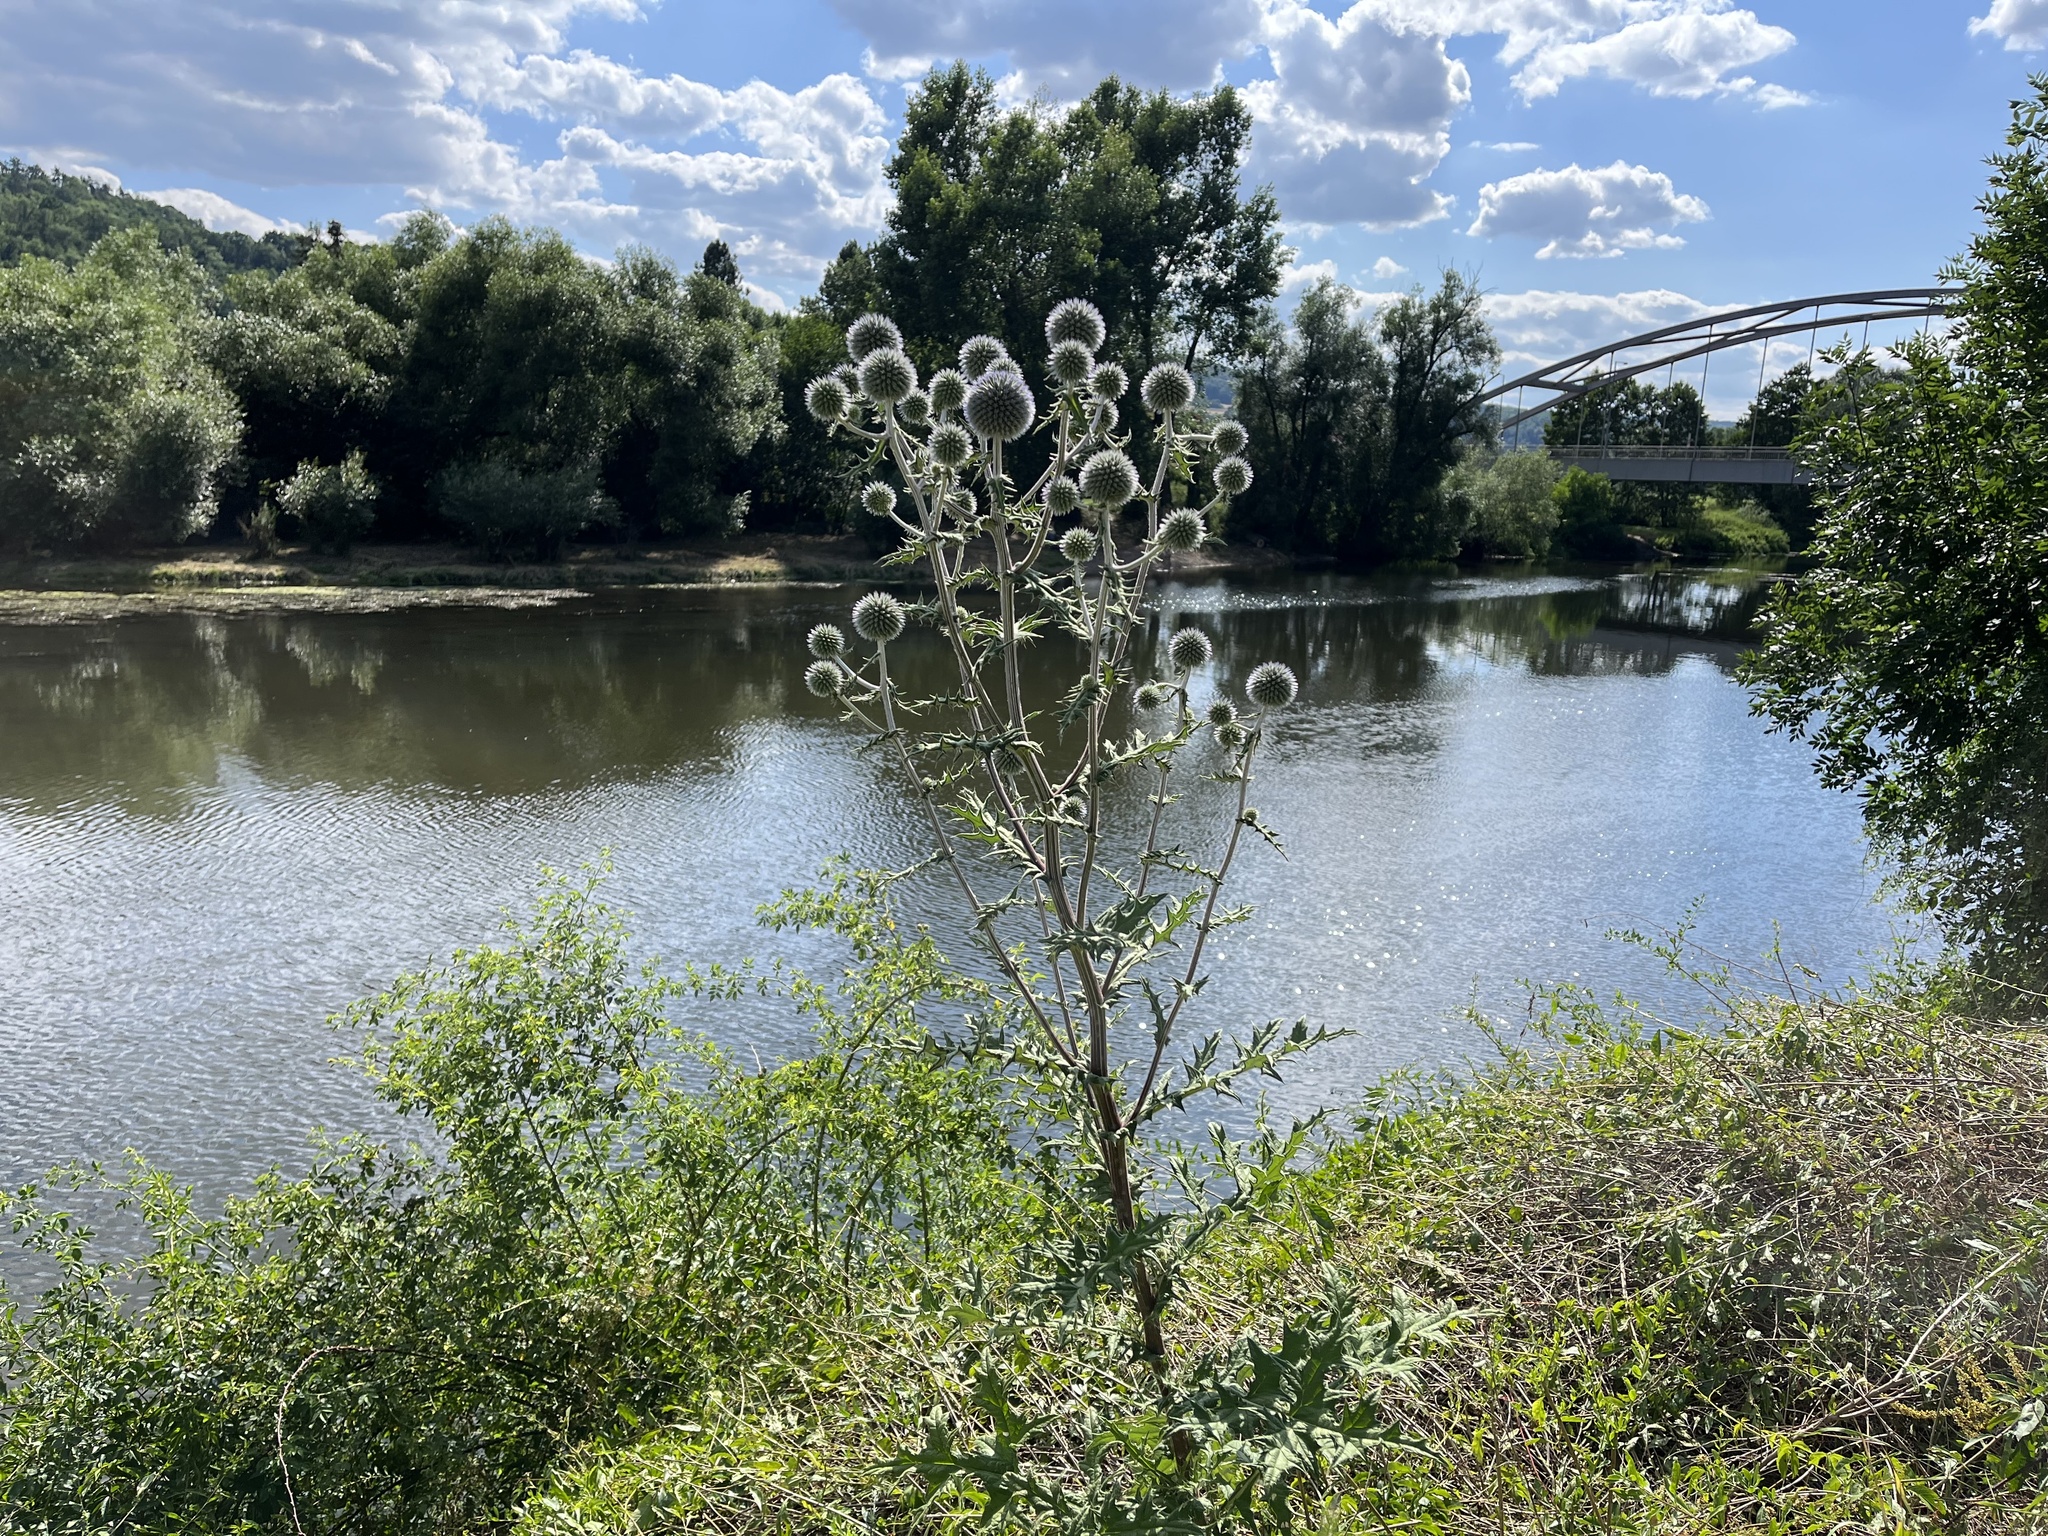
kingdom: Plantae
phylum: Tracheophyta
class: Magnoliopsida
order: Asterales
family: Asteraceae
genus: Echinops
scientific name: Echinops sphaerocephalus
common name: Glandular globe-thistle
